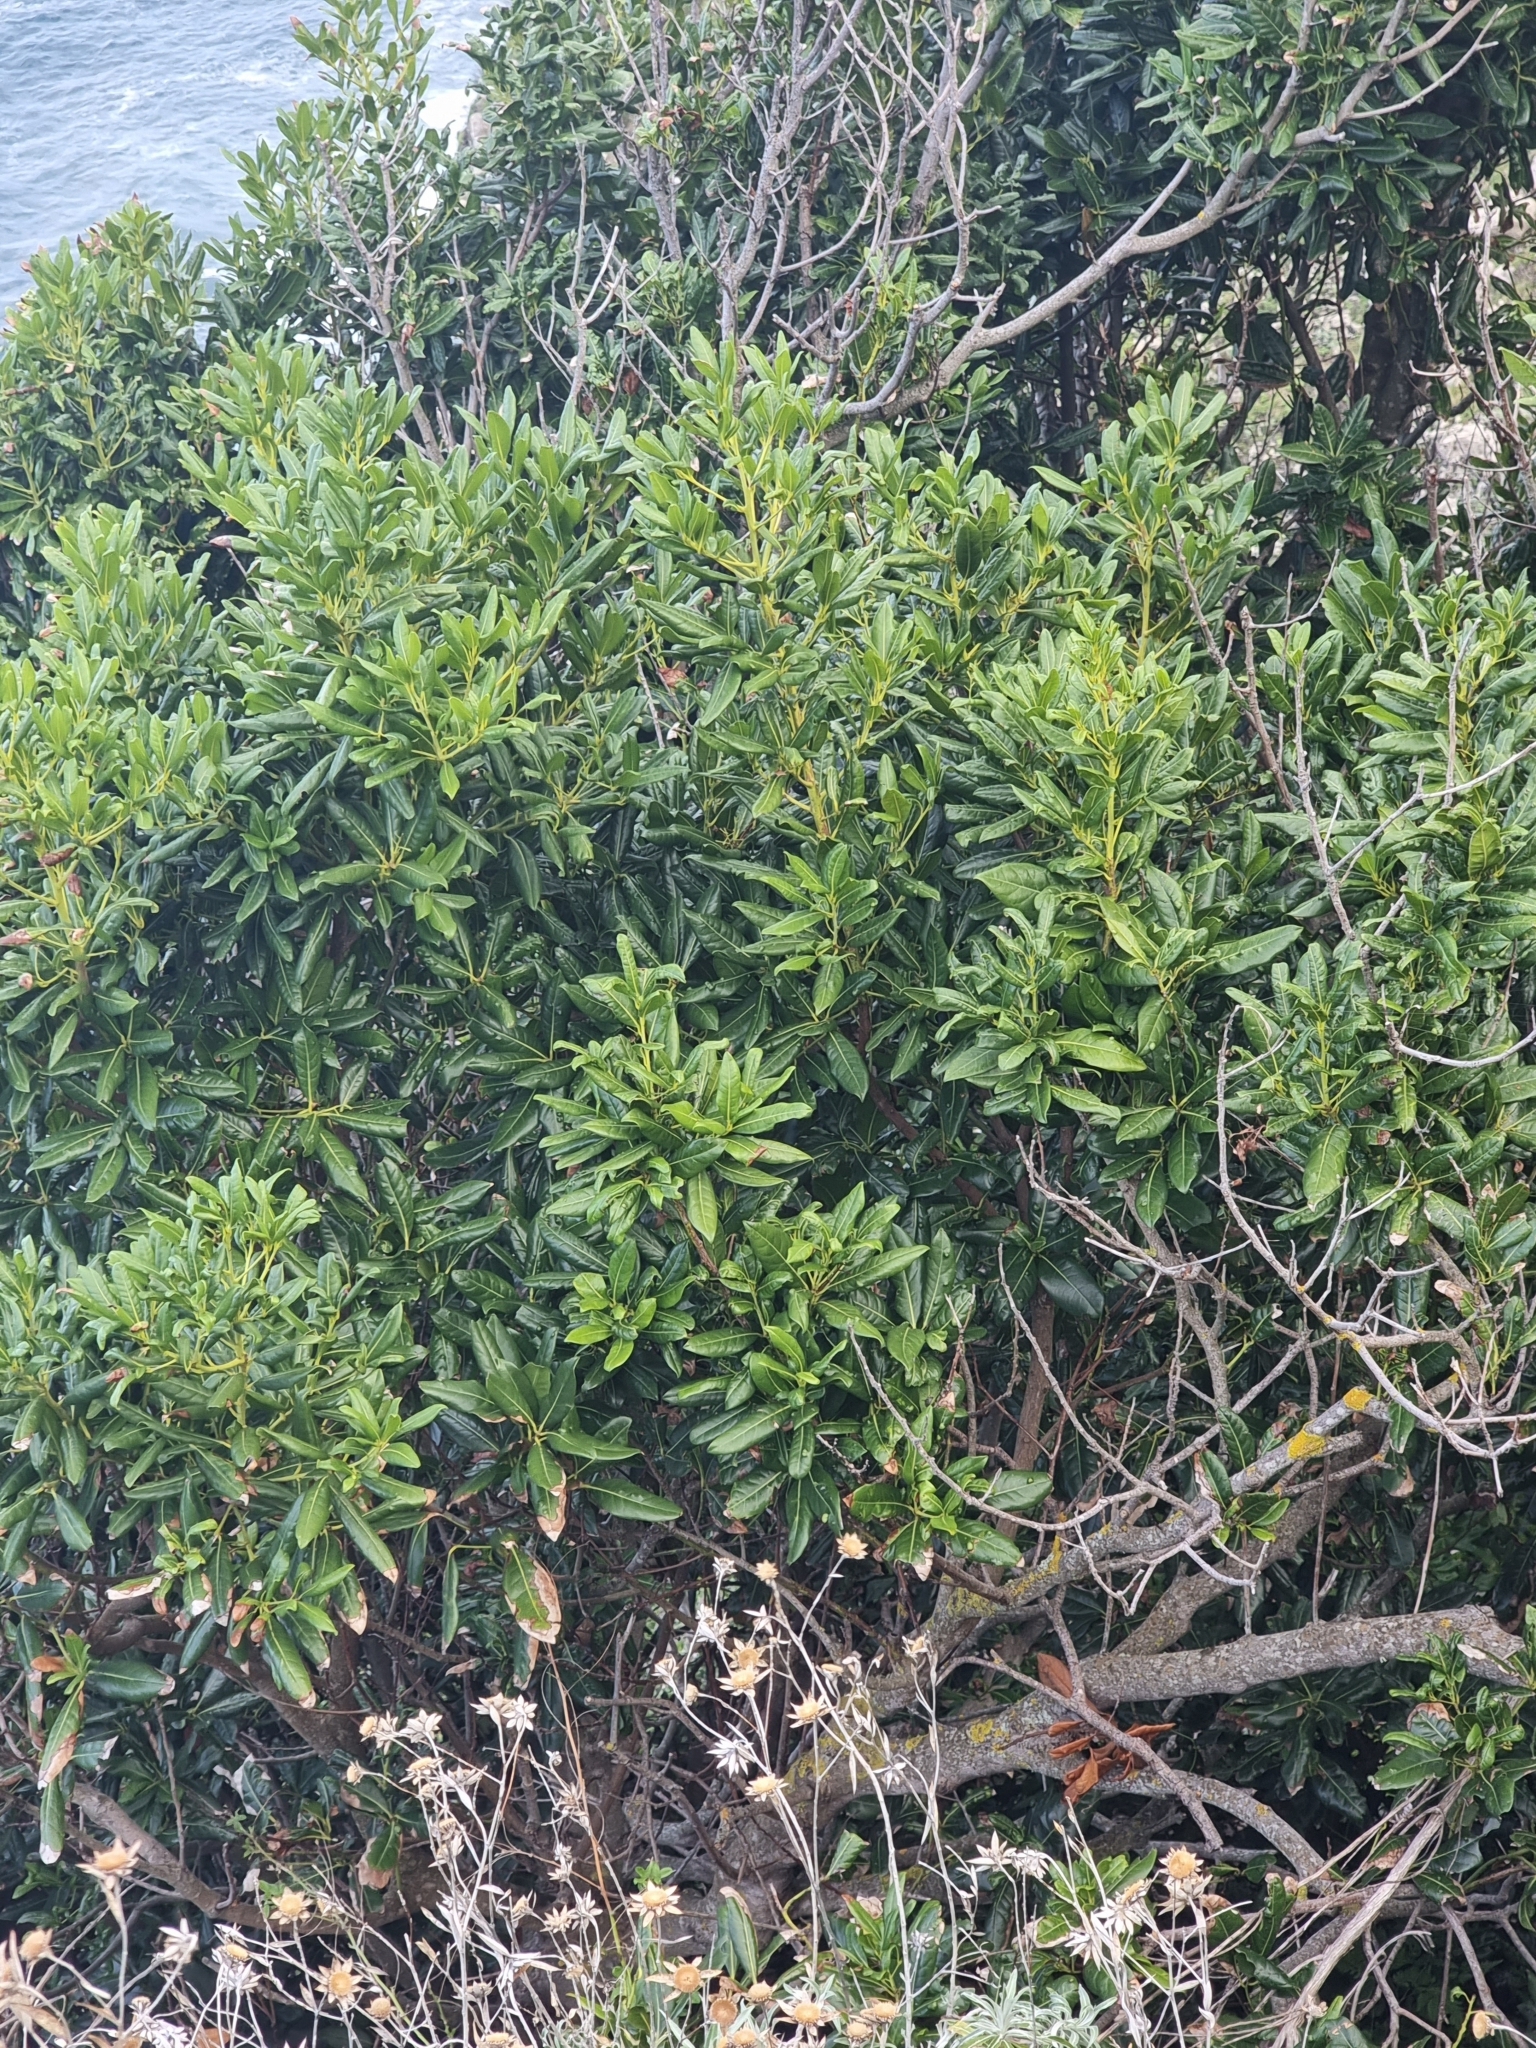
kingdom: Plantae
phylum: Tracheophyta
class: Magnoliopsida
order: Laurales
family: Lauraceae
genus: Apollonias
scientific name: Apollonias barbujana
